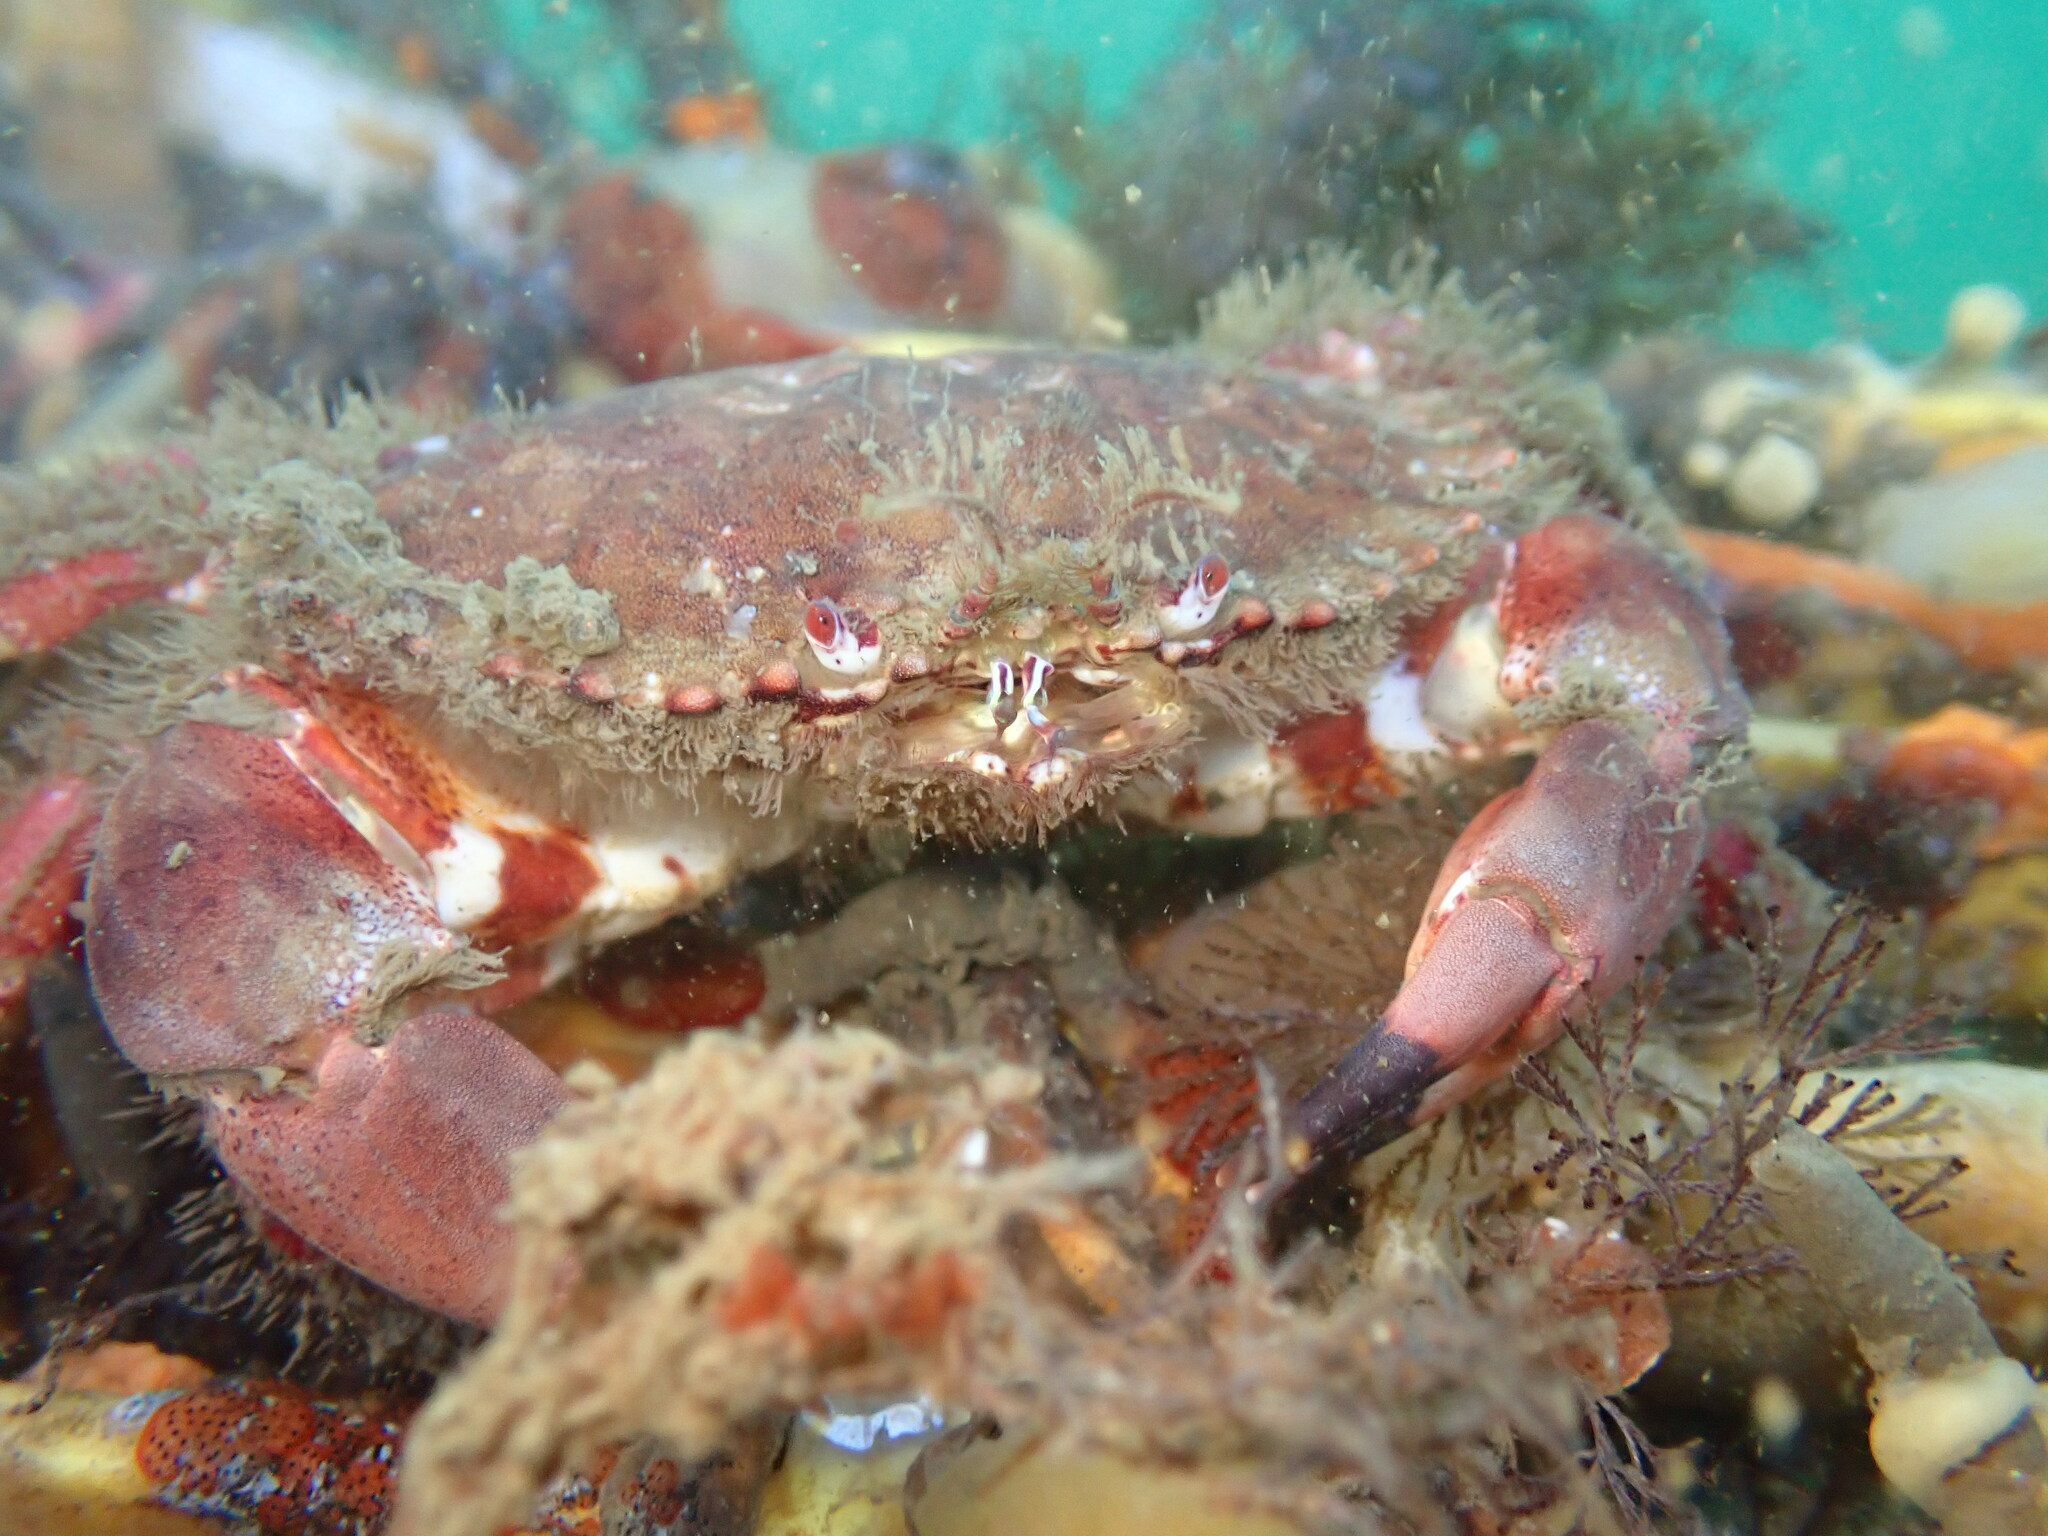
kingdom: Animalia
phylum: Arthropoda
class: Malacostraca
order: Decapoda
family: Cancridae
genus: Romaleon
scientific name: Romaleon antennarium
